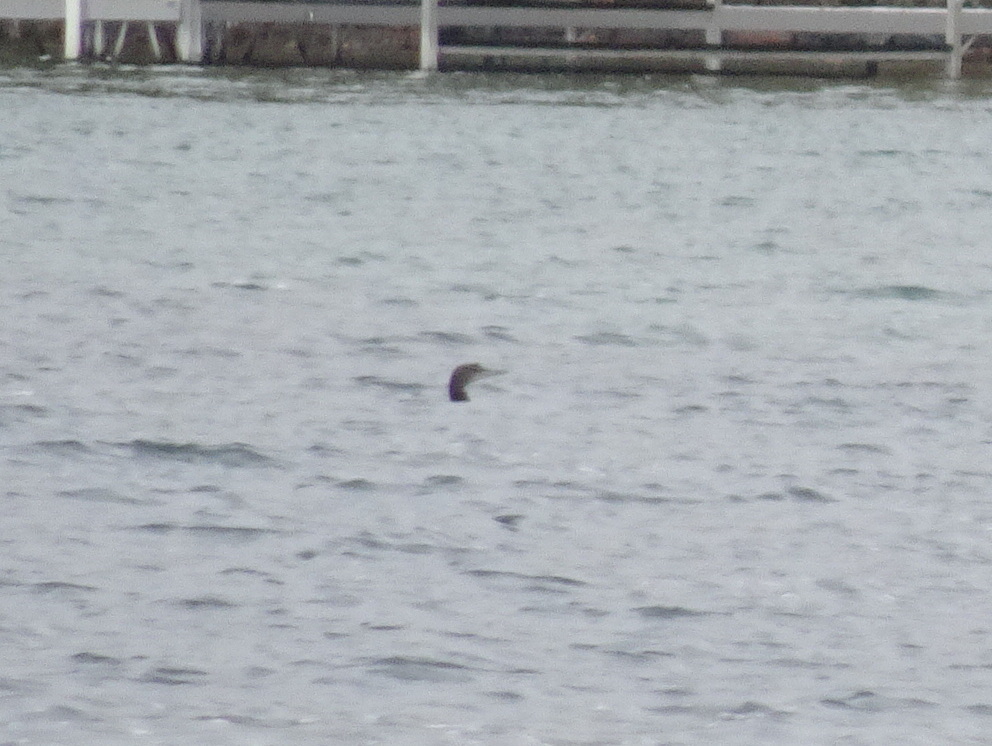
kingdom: Animalia
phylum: Chordata
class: Aves
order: Gaviiformes
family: Gaviidae
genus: Gavia
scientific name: Gavia immer
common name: Common loon
